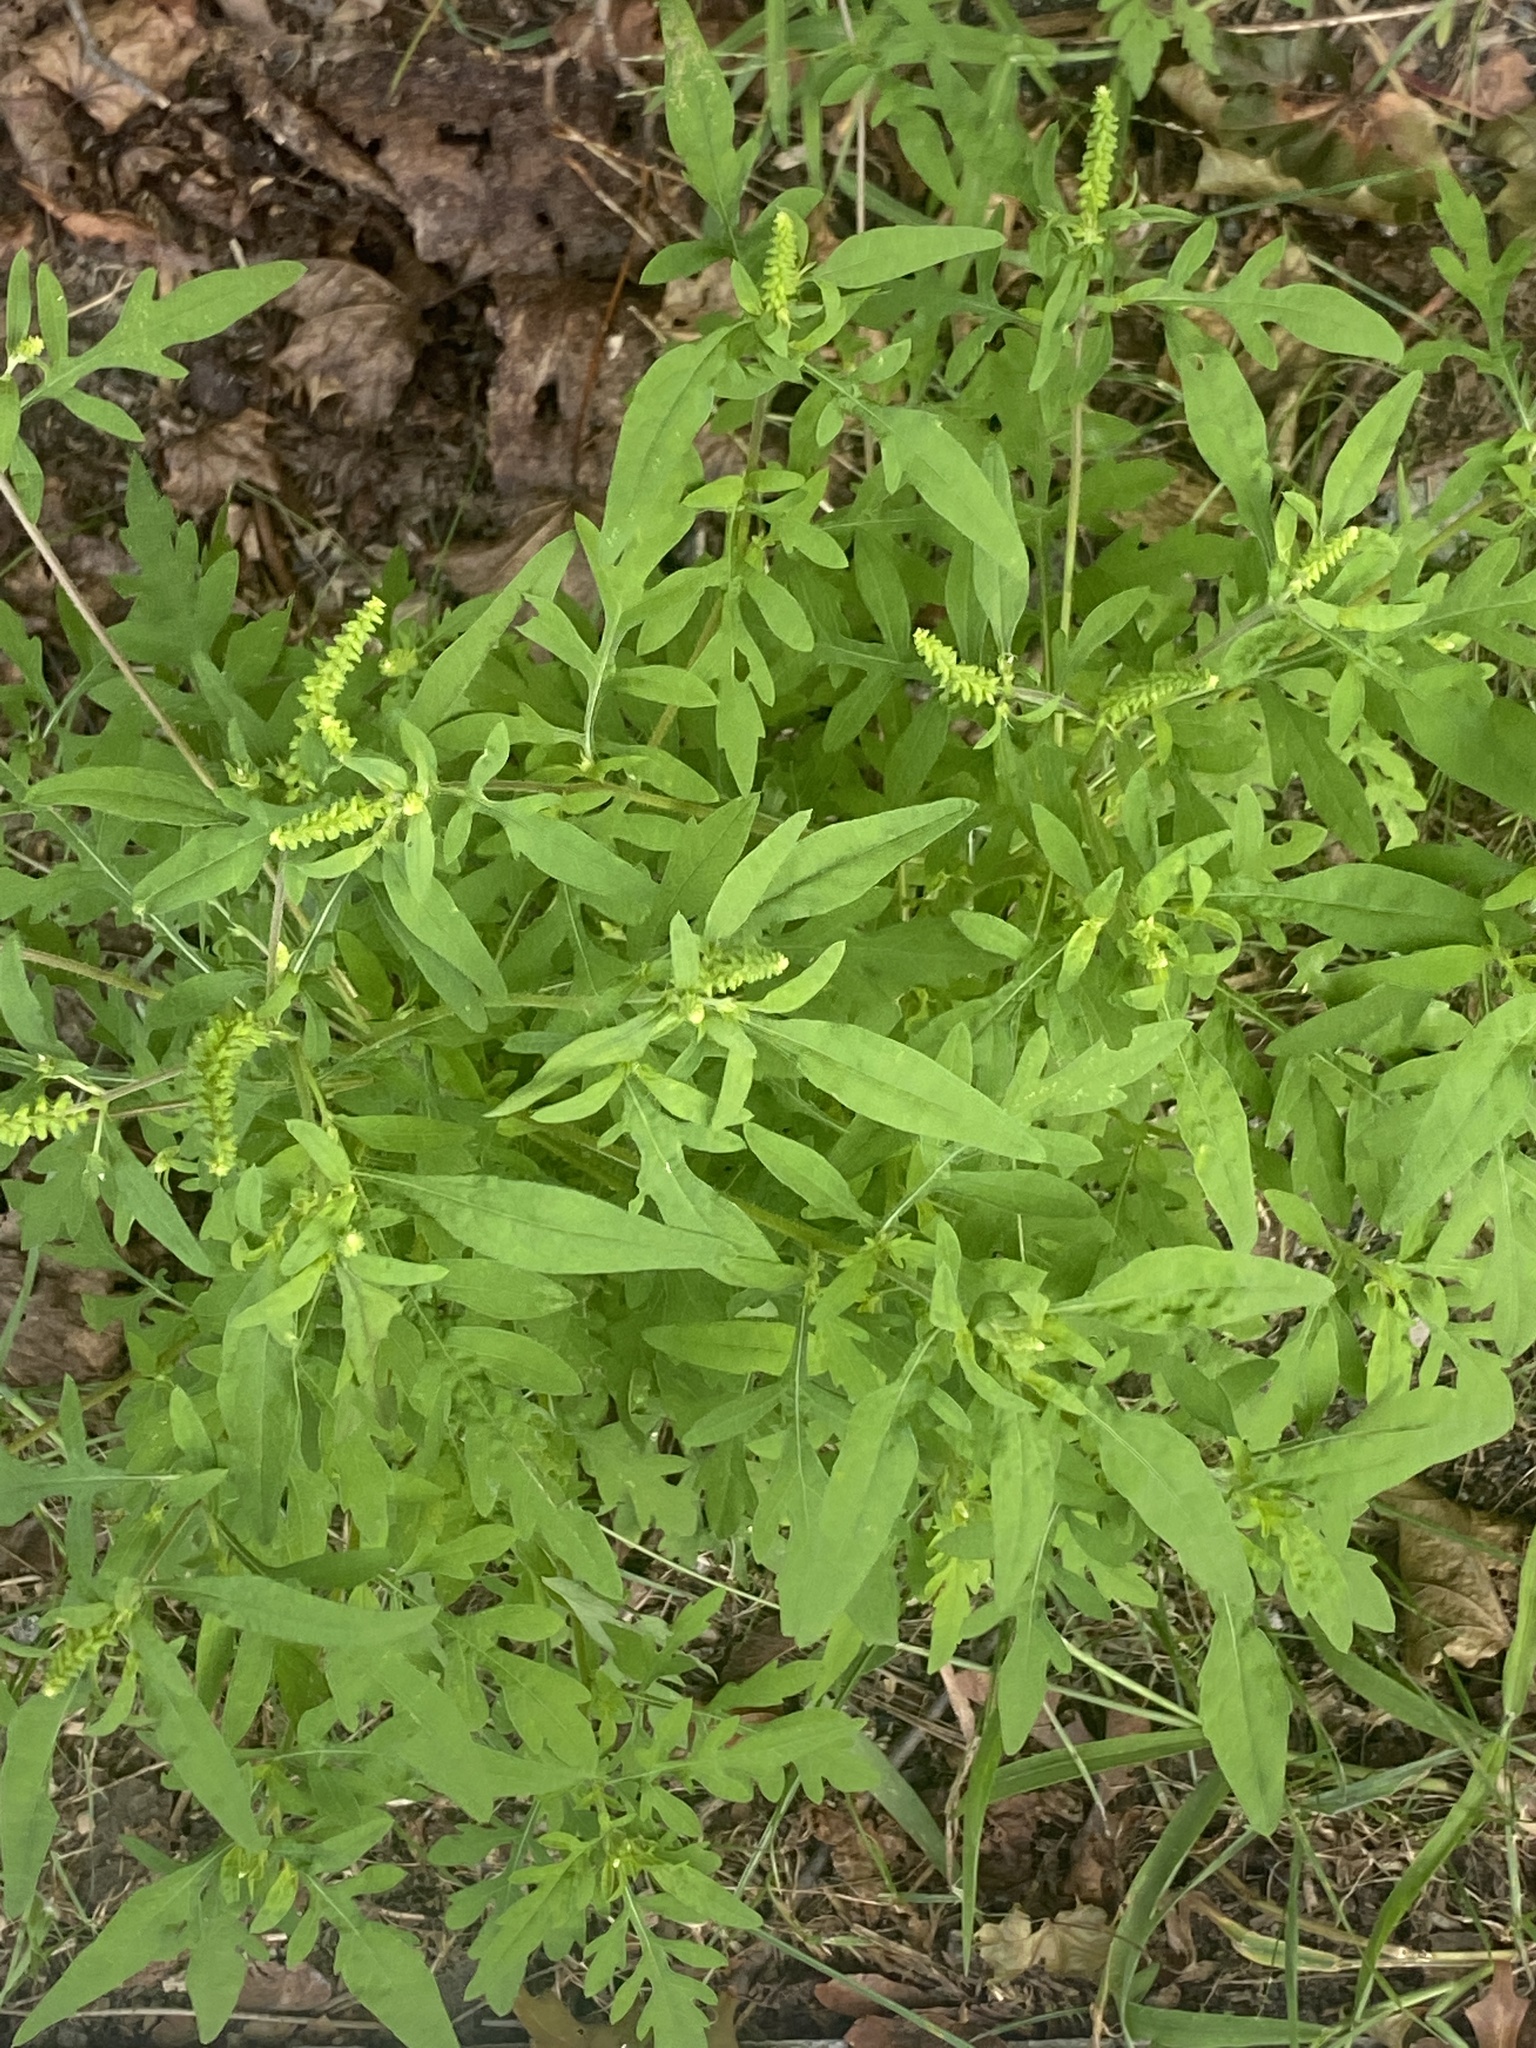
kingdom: Plantae
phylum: Tracheophyta
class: Magnoliopsida
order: Asterales
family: Asteraceae
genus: Ambrosia
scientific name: Ambrosia artemisiifolia
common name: Annual ragweed
